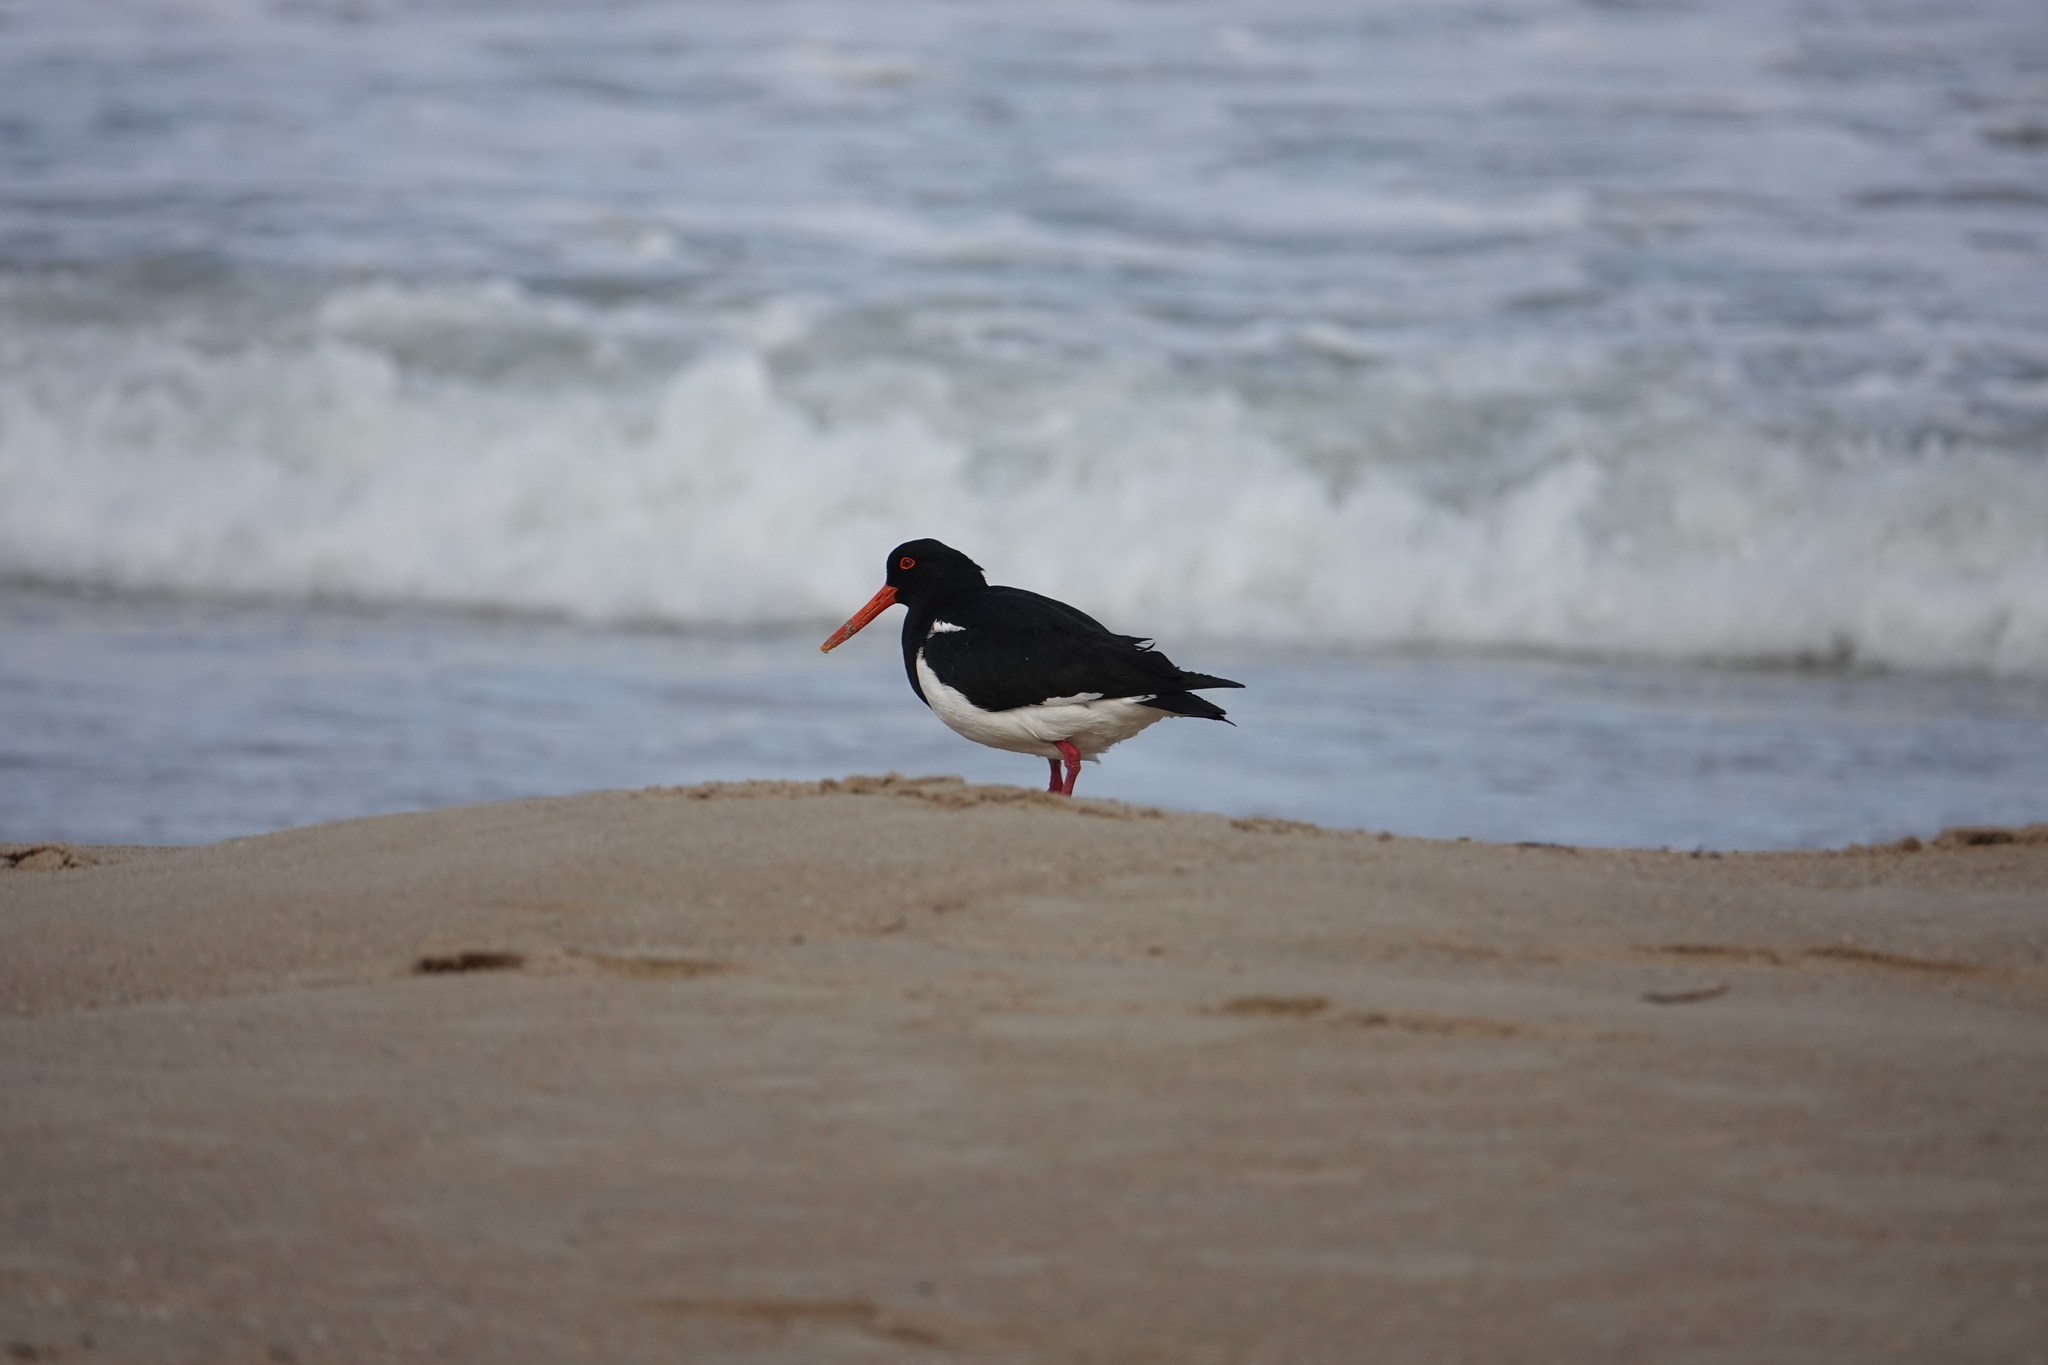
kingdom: Animalia
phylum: Chordata
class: Aves
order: Charadriiformes
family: Haematopodidae
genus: Haematopus
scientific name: Haematopus longirostris
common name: Pied oystercatcher
